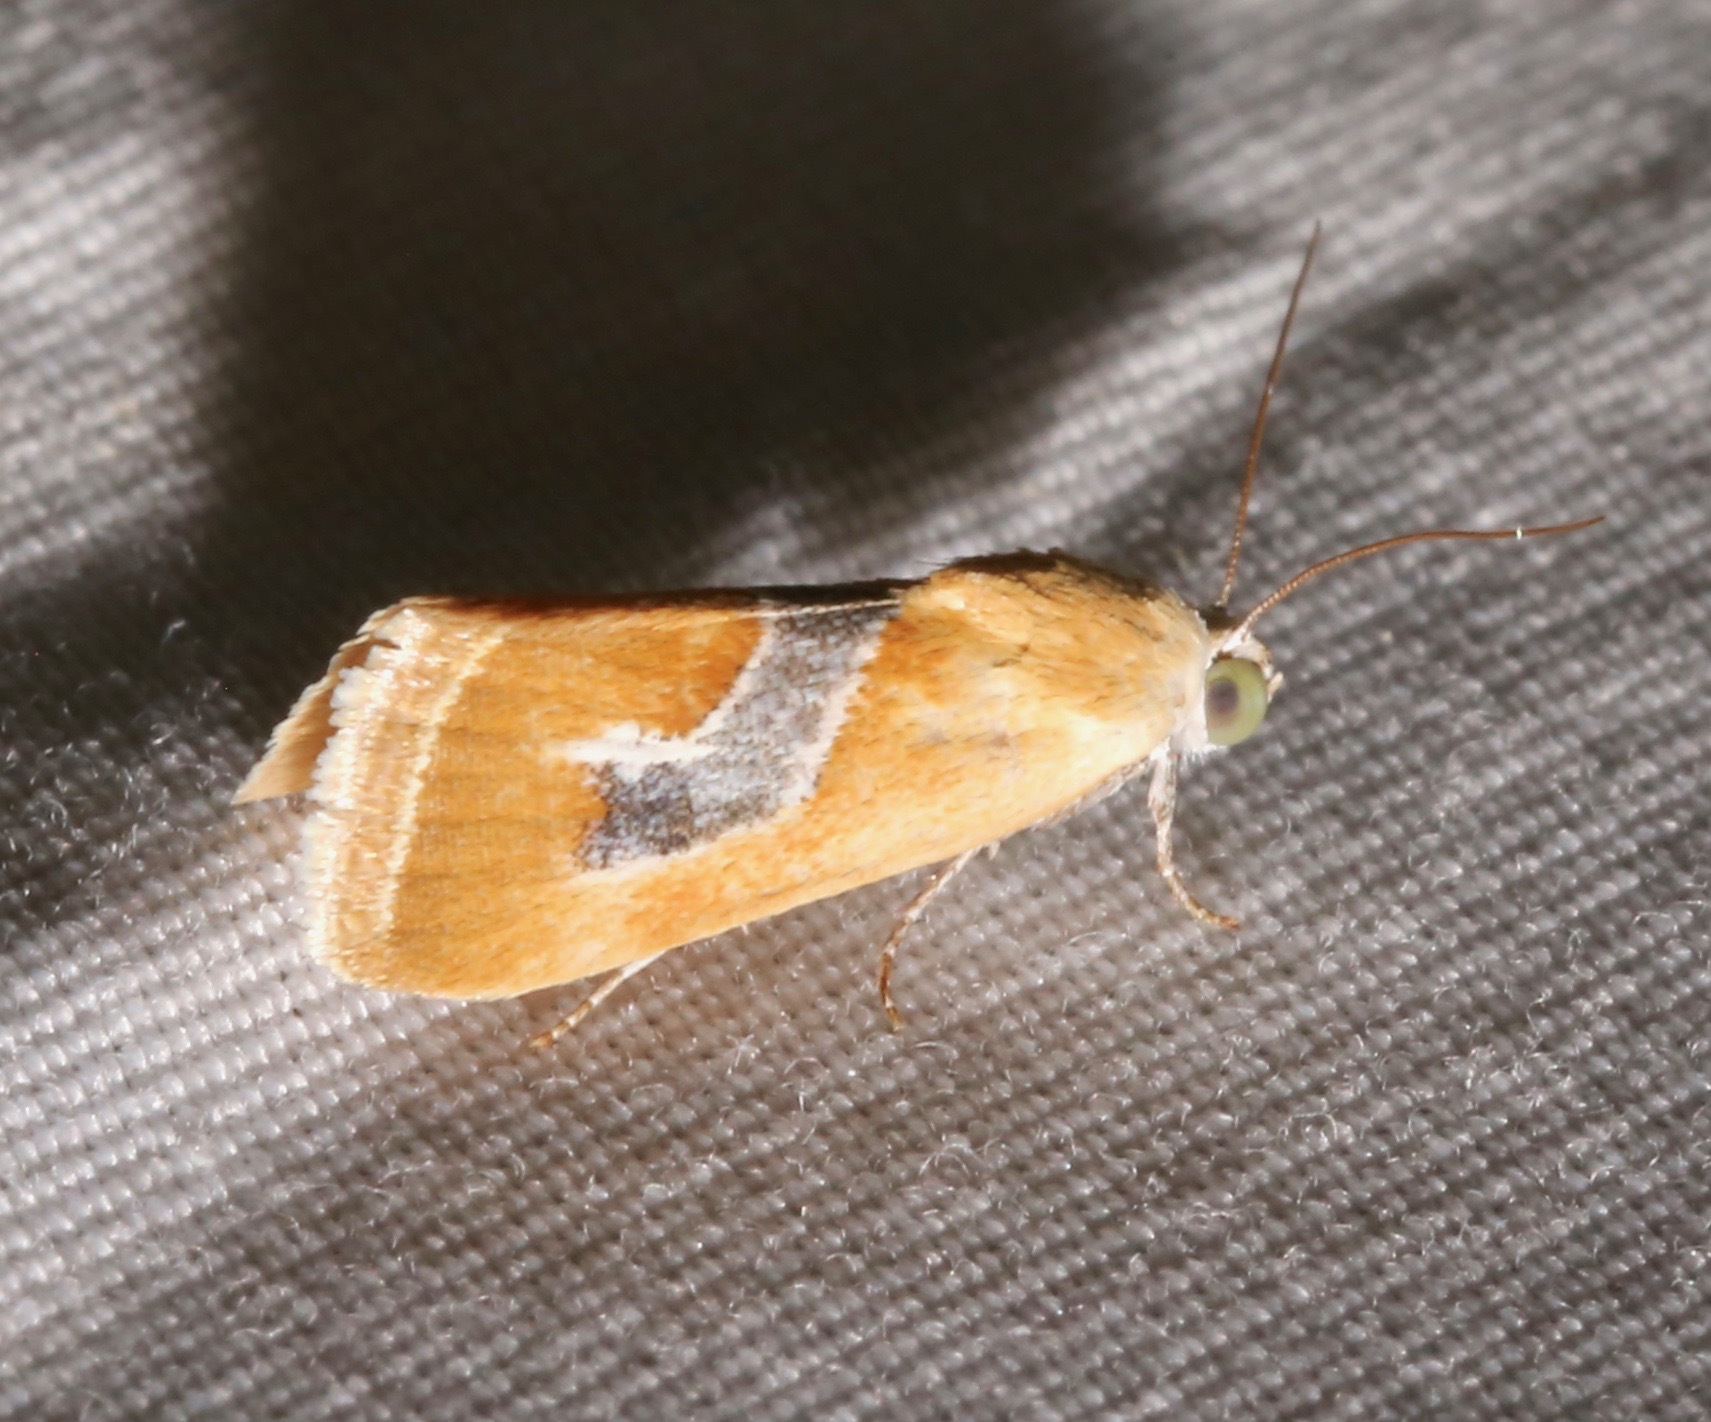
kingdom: Animalia
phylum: Arthropoda
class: Insecta
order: Lepidoptera
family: Noctuidae
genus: Ponometia
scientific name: Ponometia venustula
